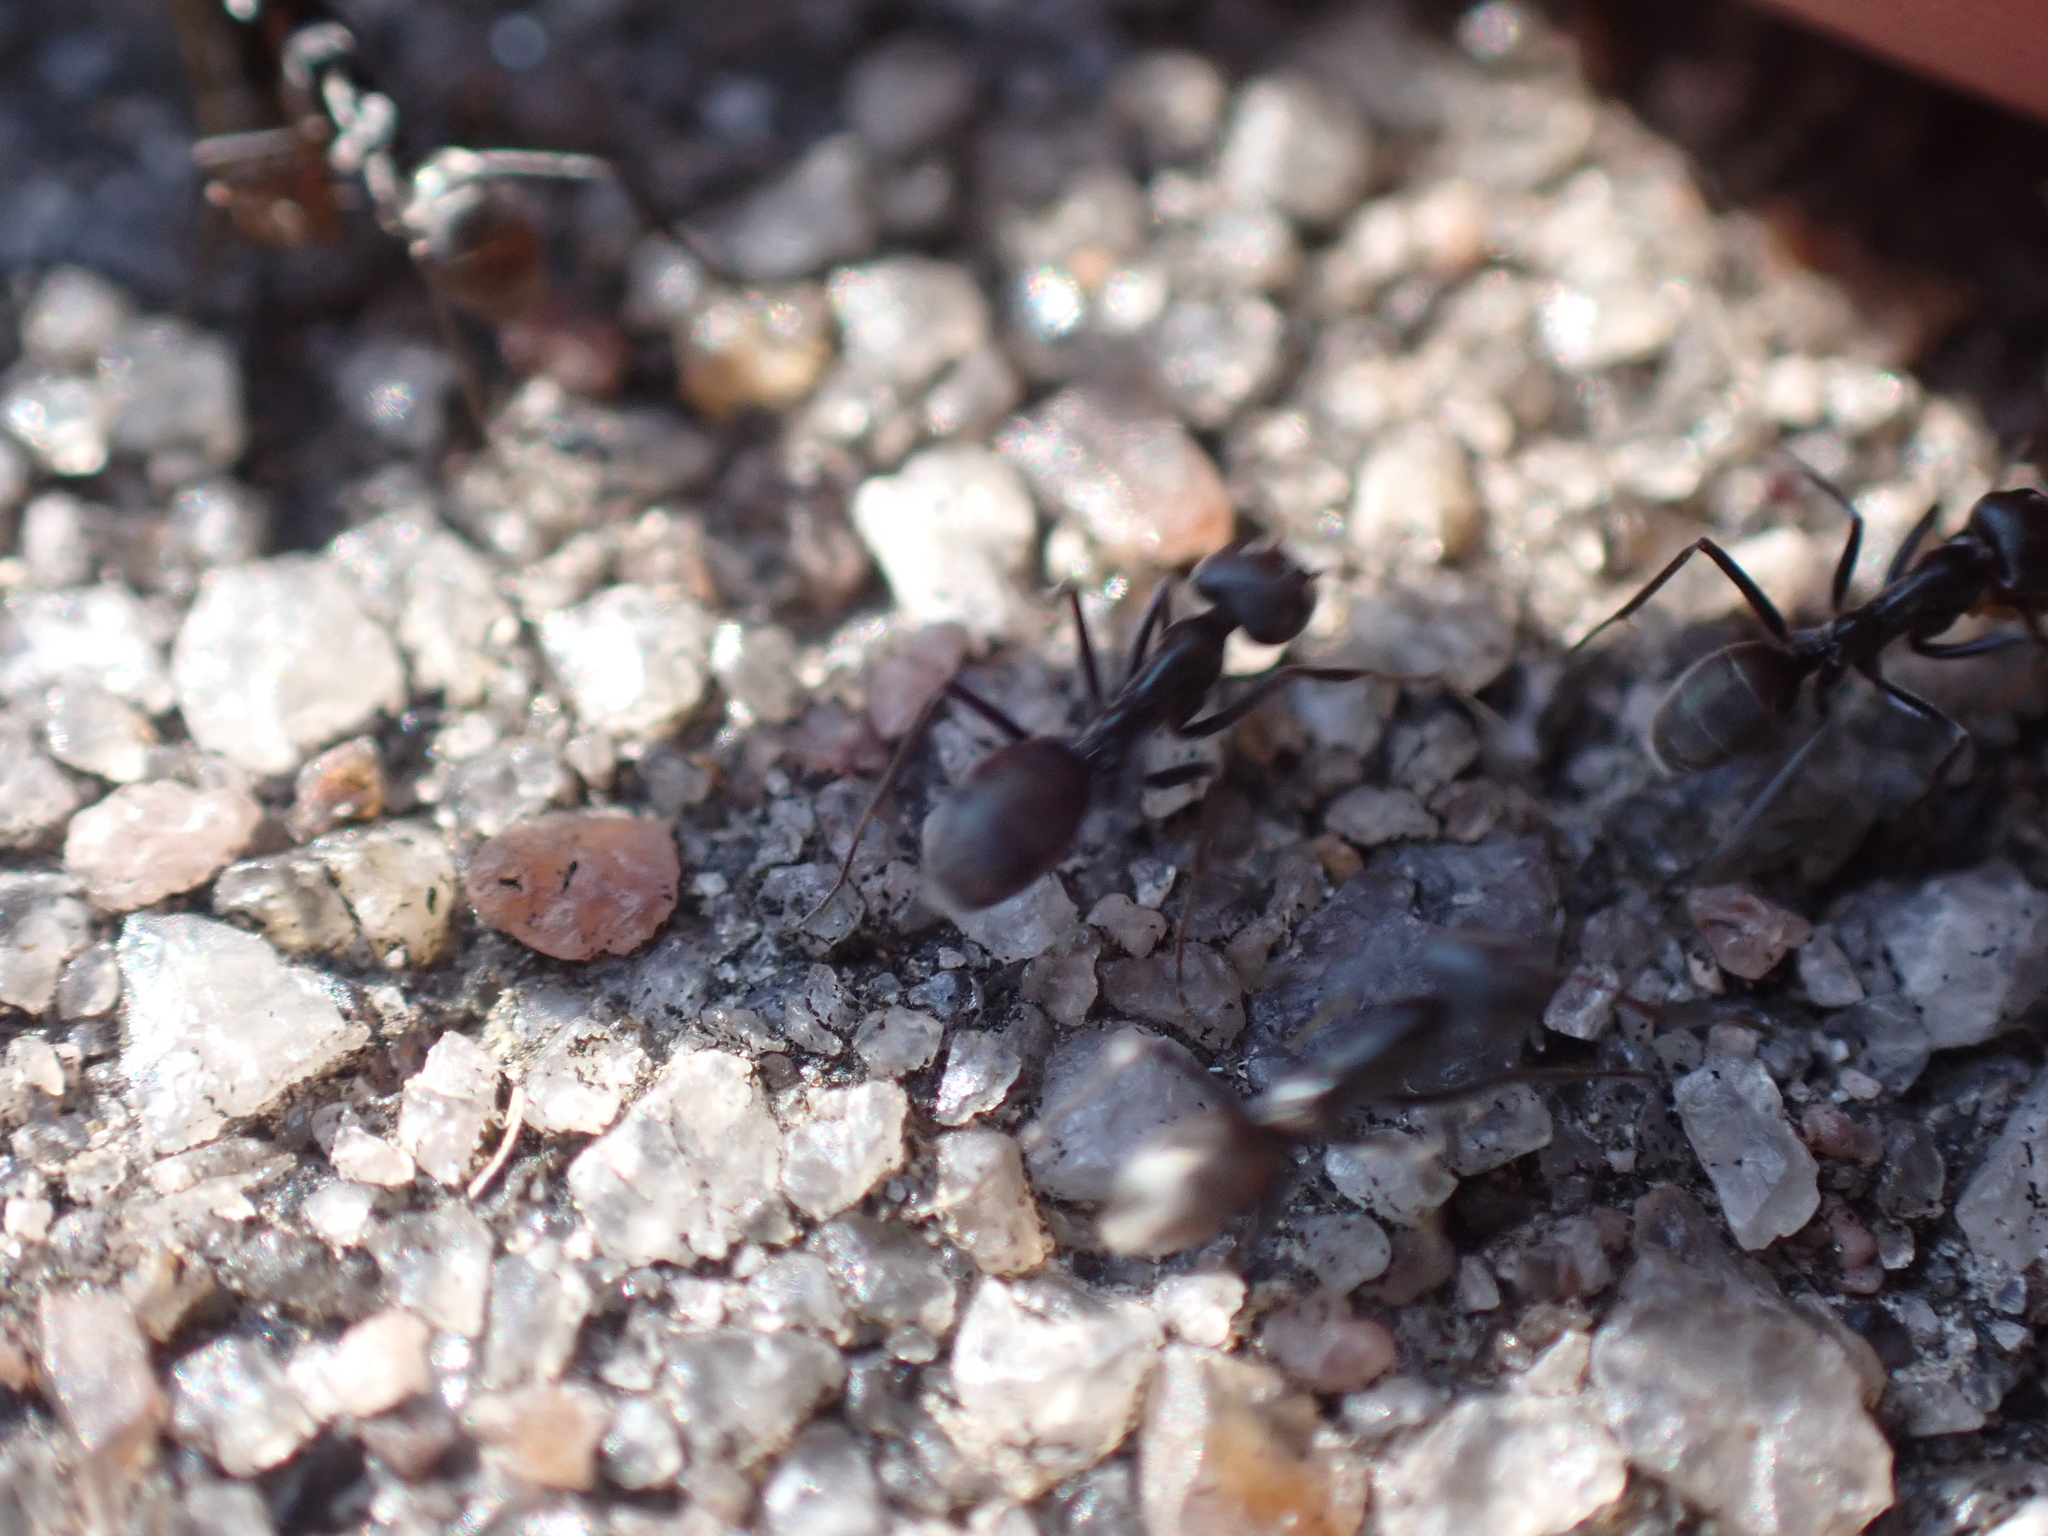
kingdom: Animalia
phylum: Arthropoda
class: Insecta
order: Hymenoptera
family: Formicidae
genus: Iridomyrmex
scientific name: Iridomyrmex anceps
